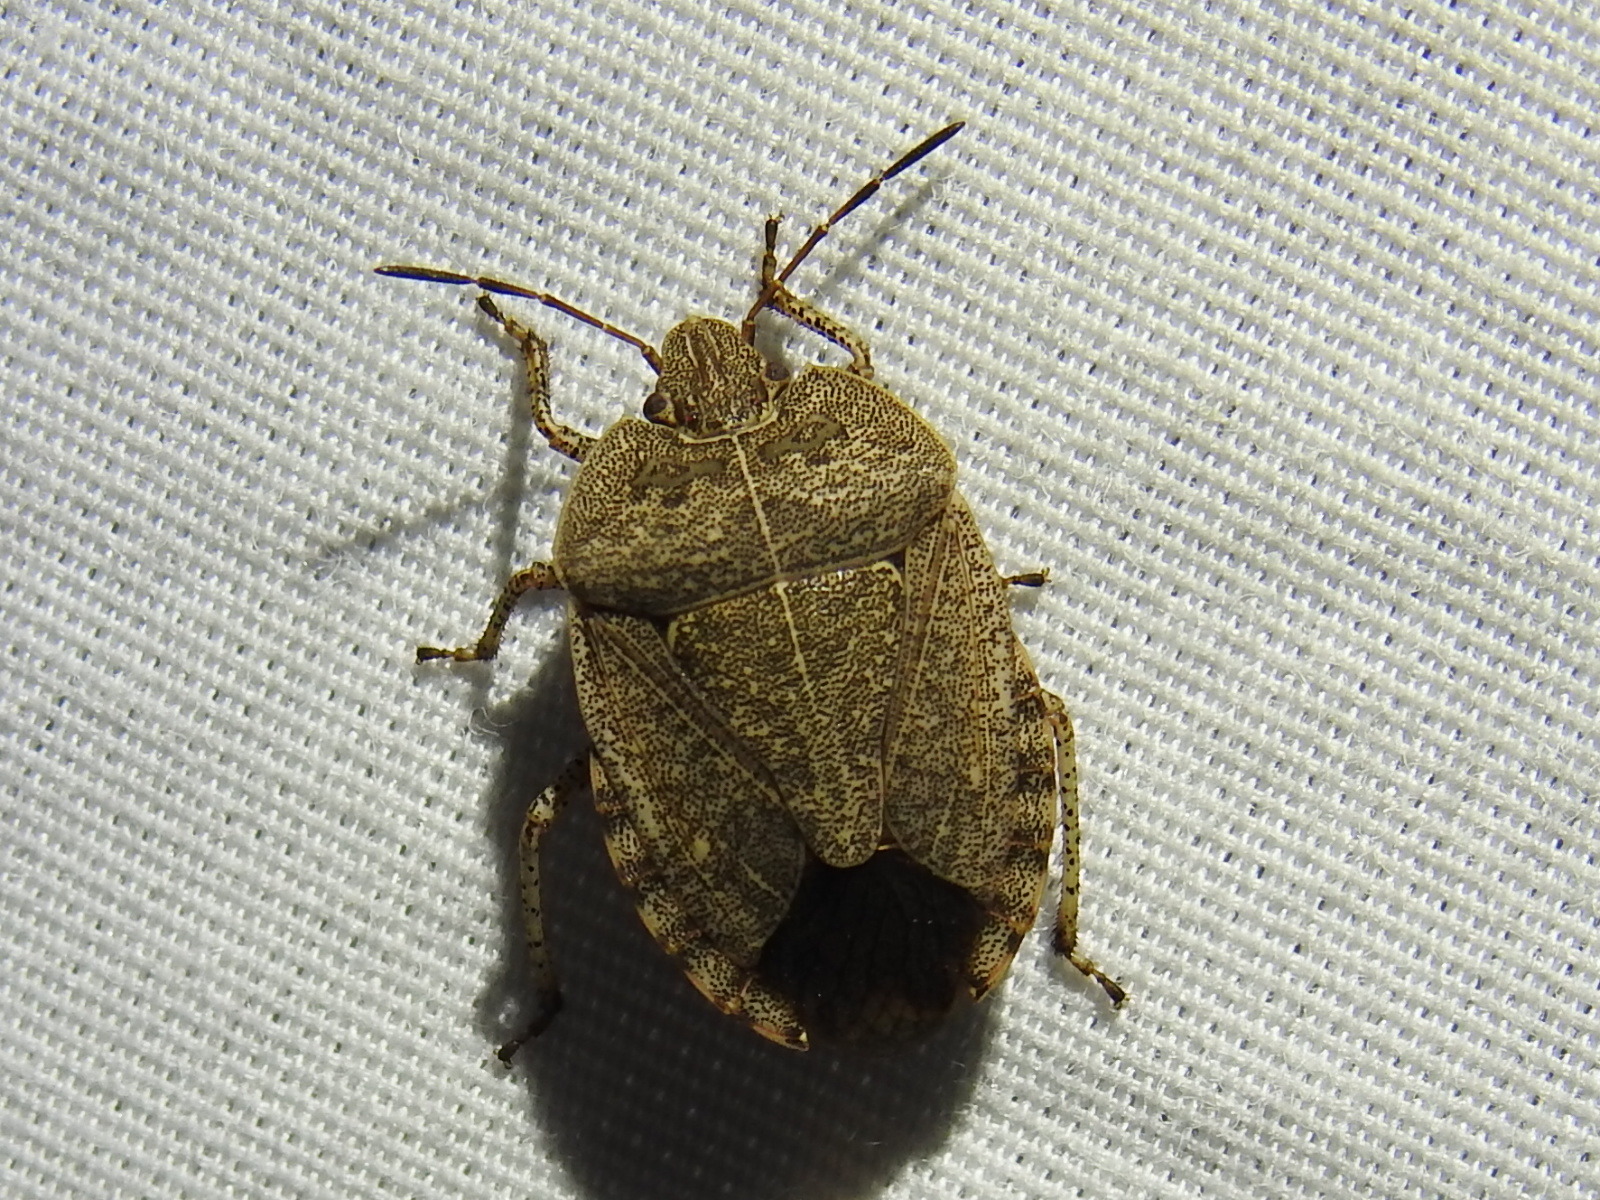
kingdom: Animalia
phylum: Arthropoda
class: Insecta
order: Hemiptera
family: Pentatomidae
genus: Menecles
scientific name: Menecles insertus
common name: Elf shoe stink bug
